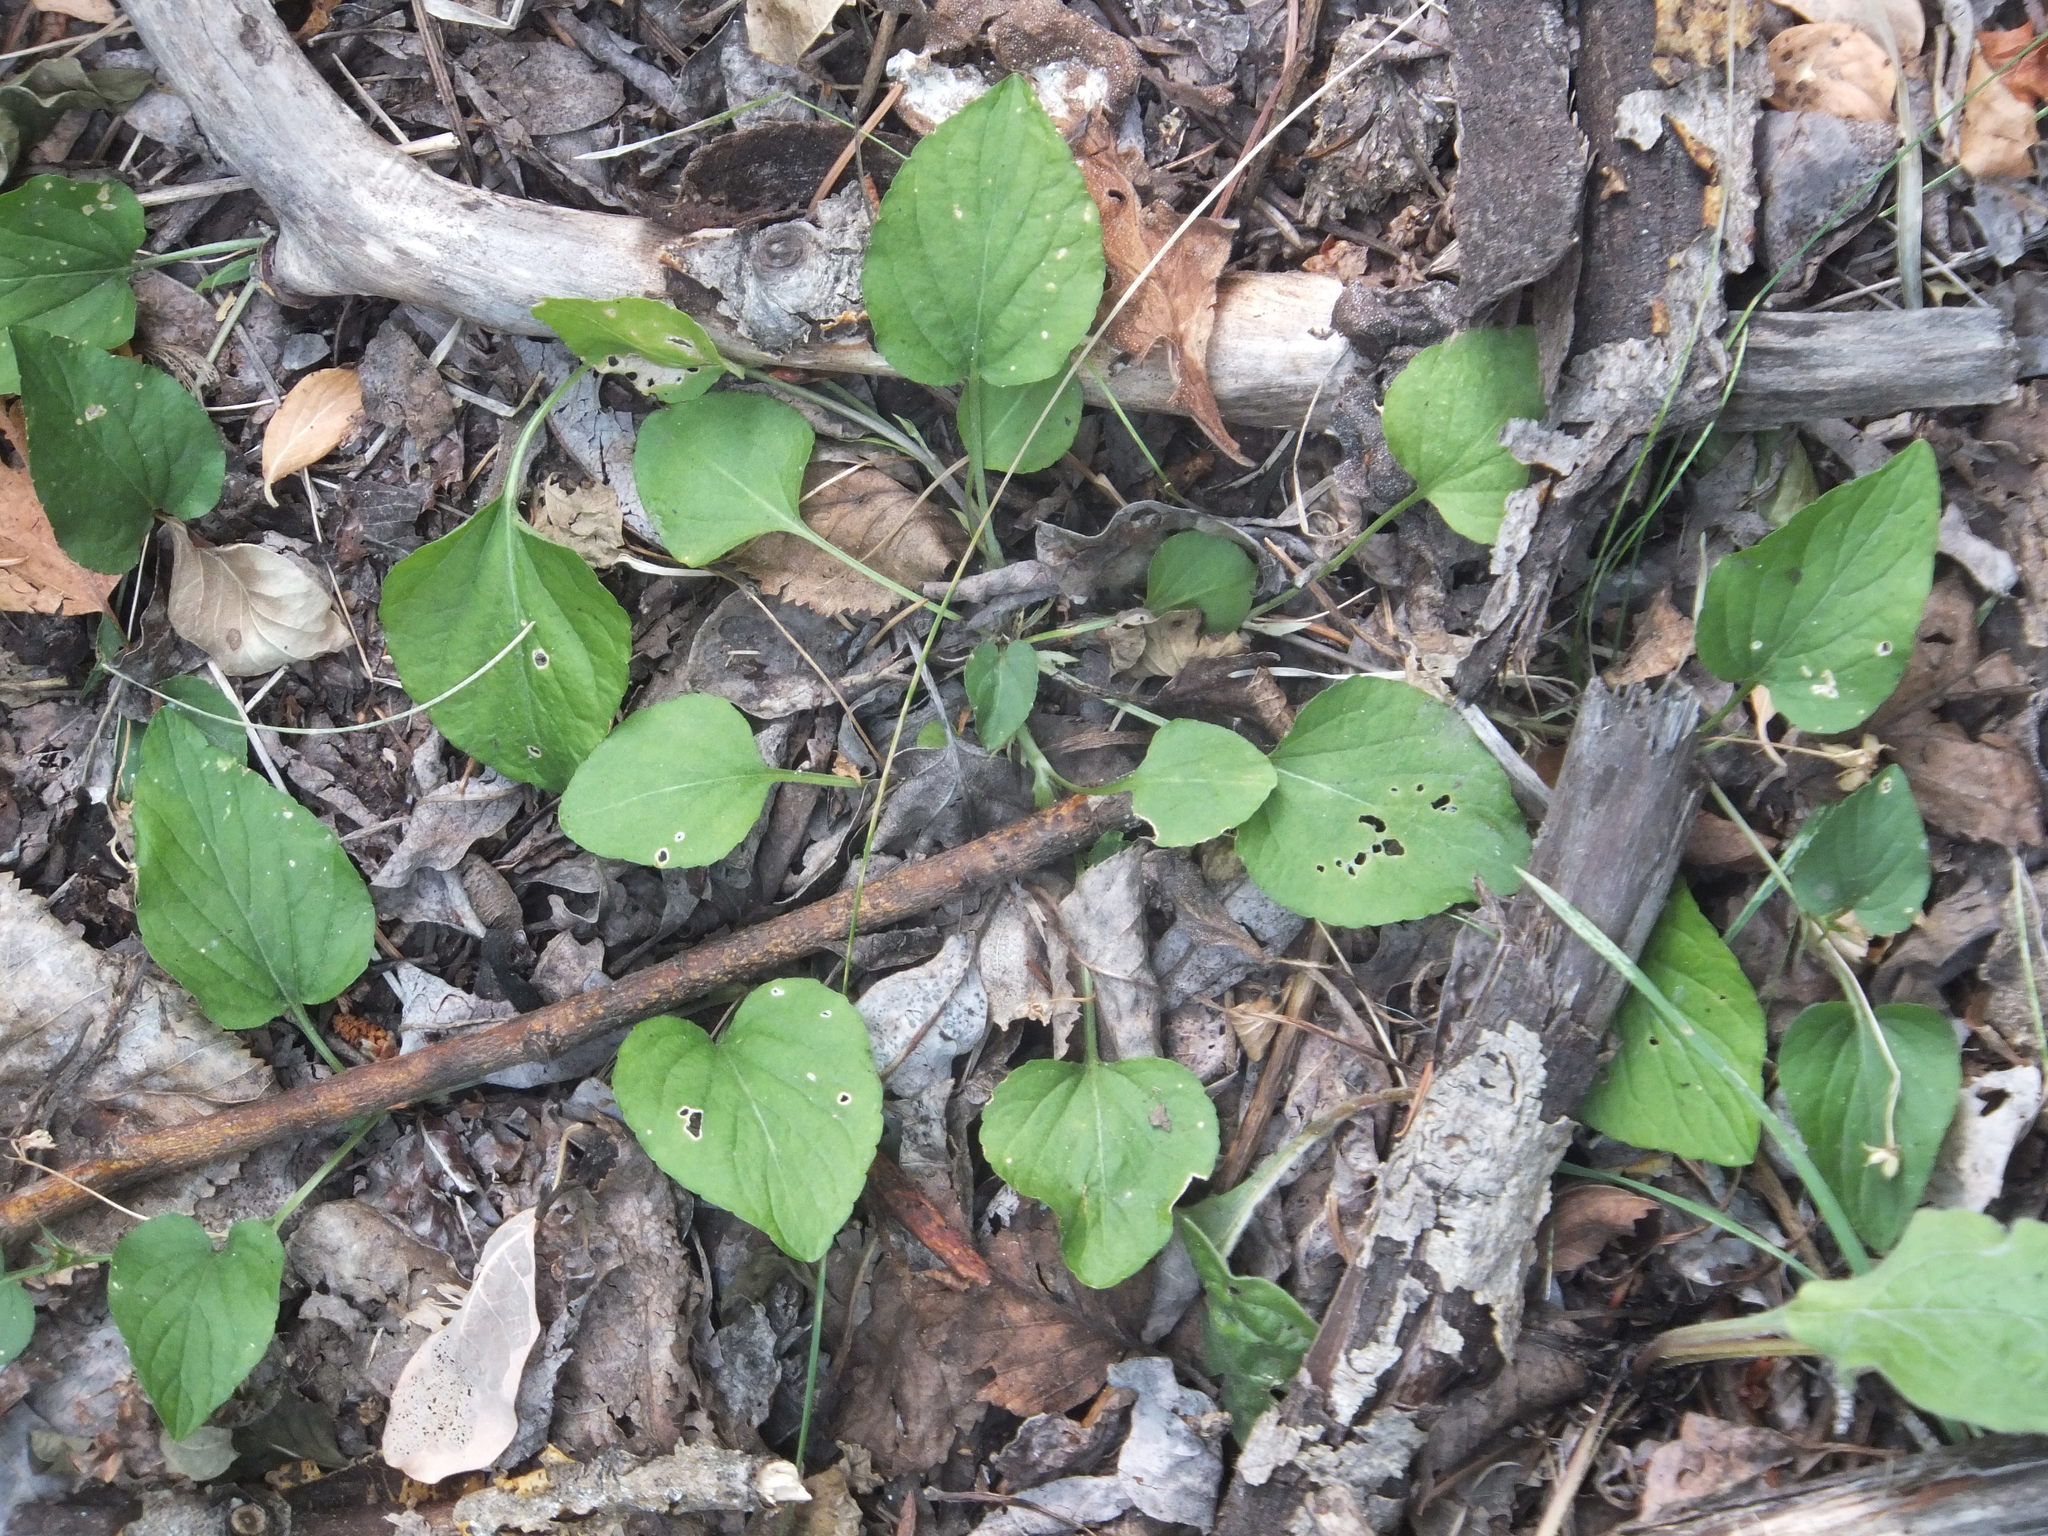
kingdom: Plantae
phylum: Tracheophyta
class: Magnoliopsida
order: Malpighiales
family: Violaceae
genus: Viola
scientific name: Viola adunca
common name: Sand violet
